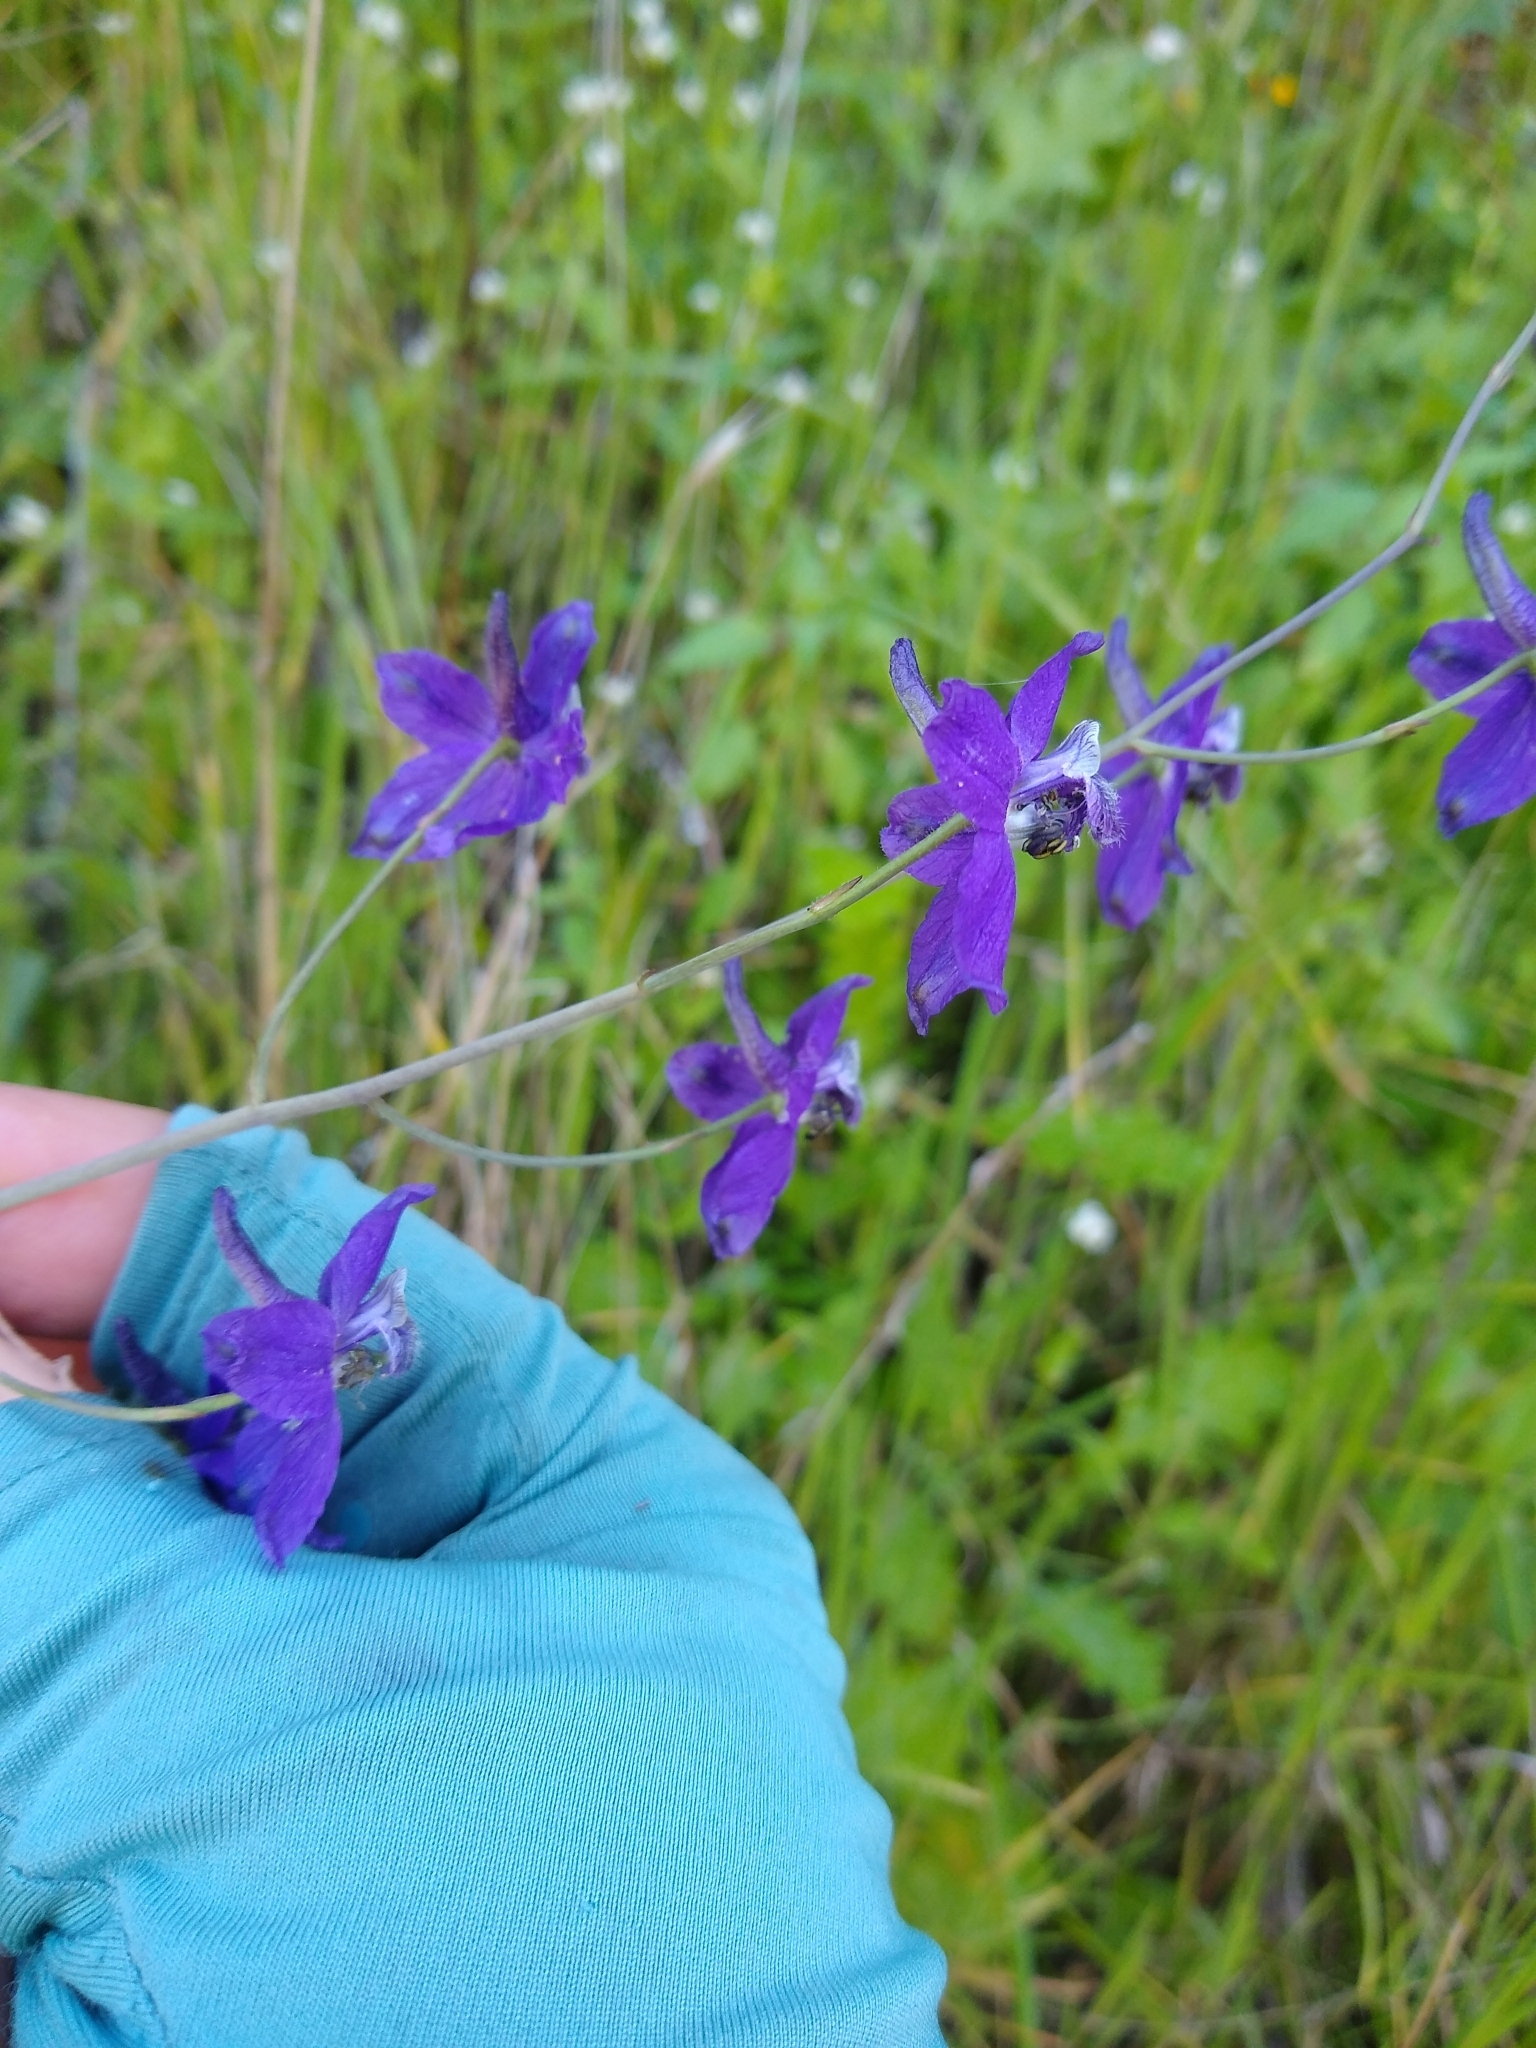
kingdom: Plantae
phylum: Tracheophyta
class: Magnoliopsida
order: Ranunculales
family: Ranunculaceae
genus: Delphinium
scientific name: Delphinium patens
